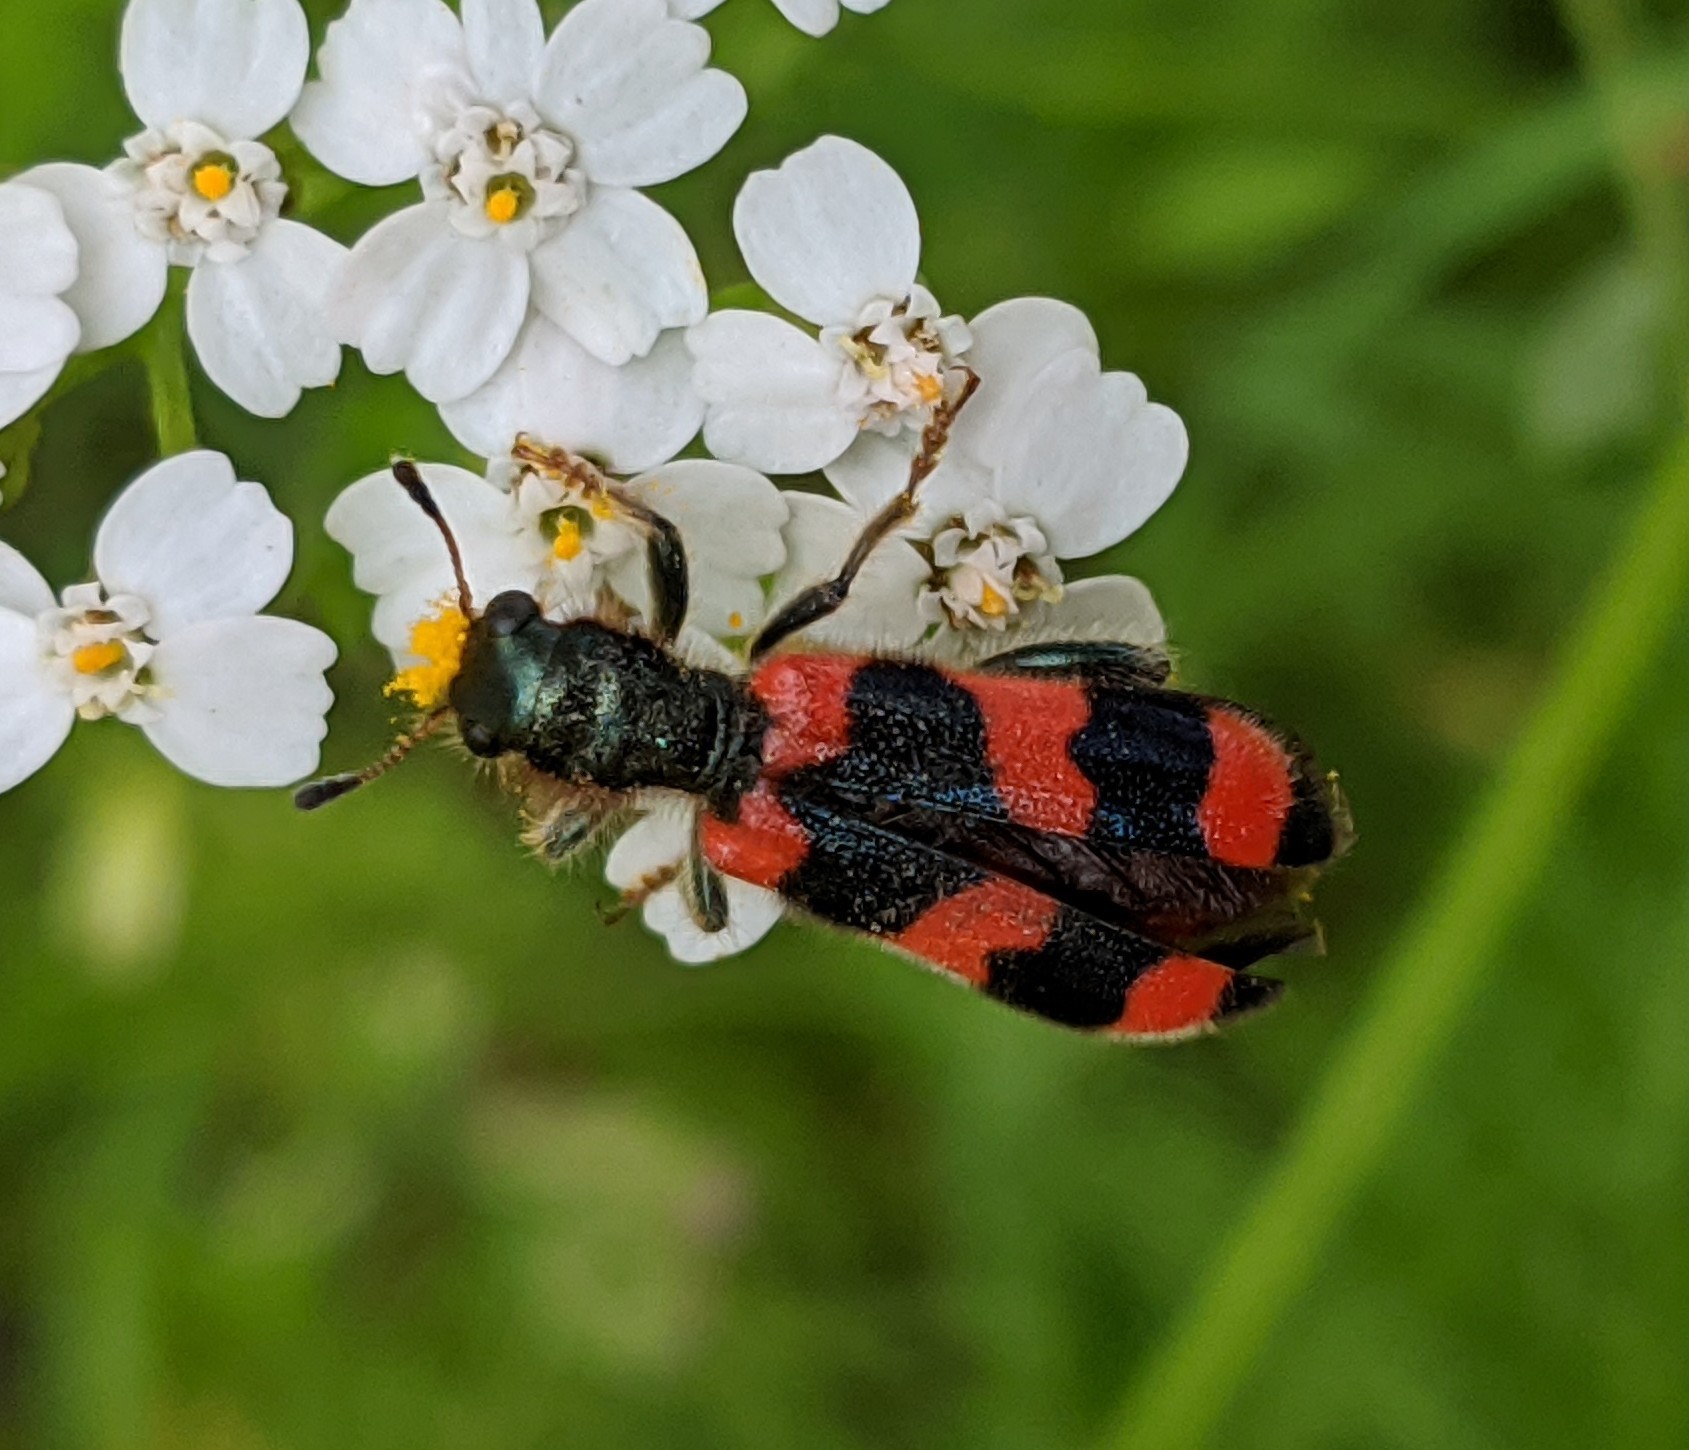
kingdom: Animalia
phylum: Arthropoda
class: Insecta
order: Coleoptera
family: Cleridae
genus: Trichodes
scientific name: Trichodes apiarius
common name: Bee-eating beetle
